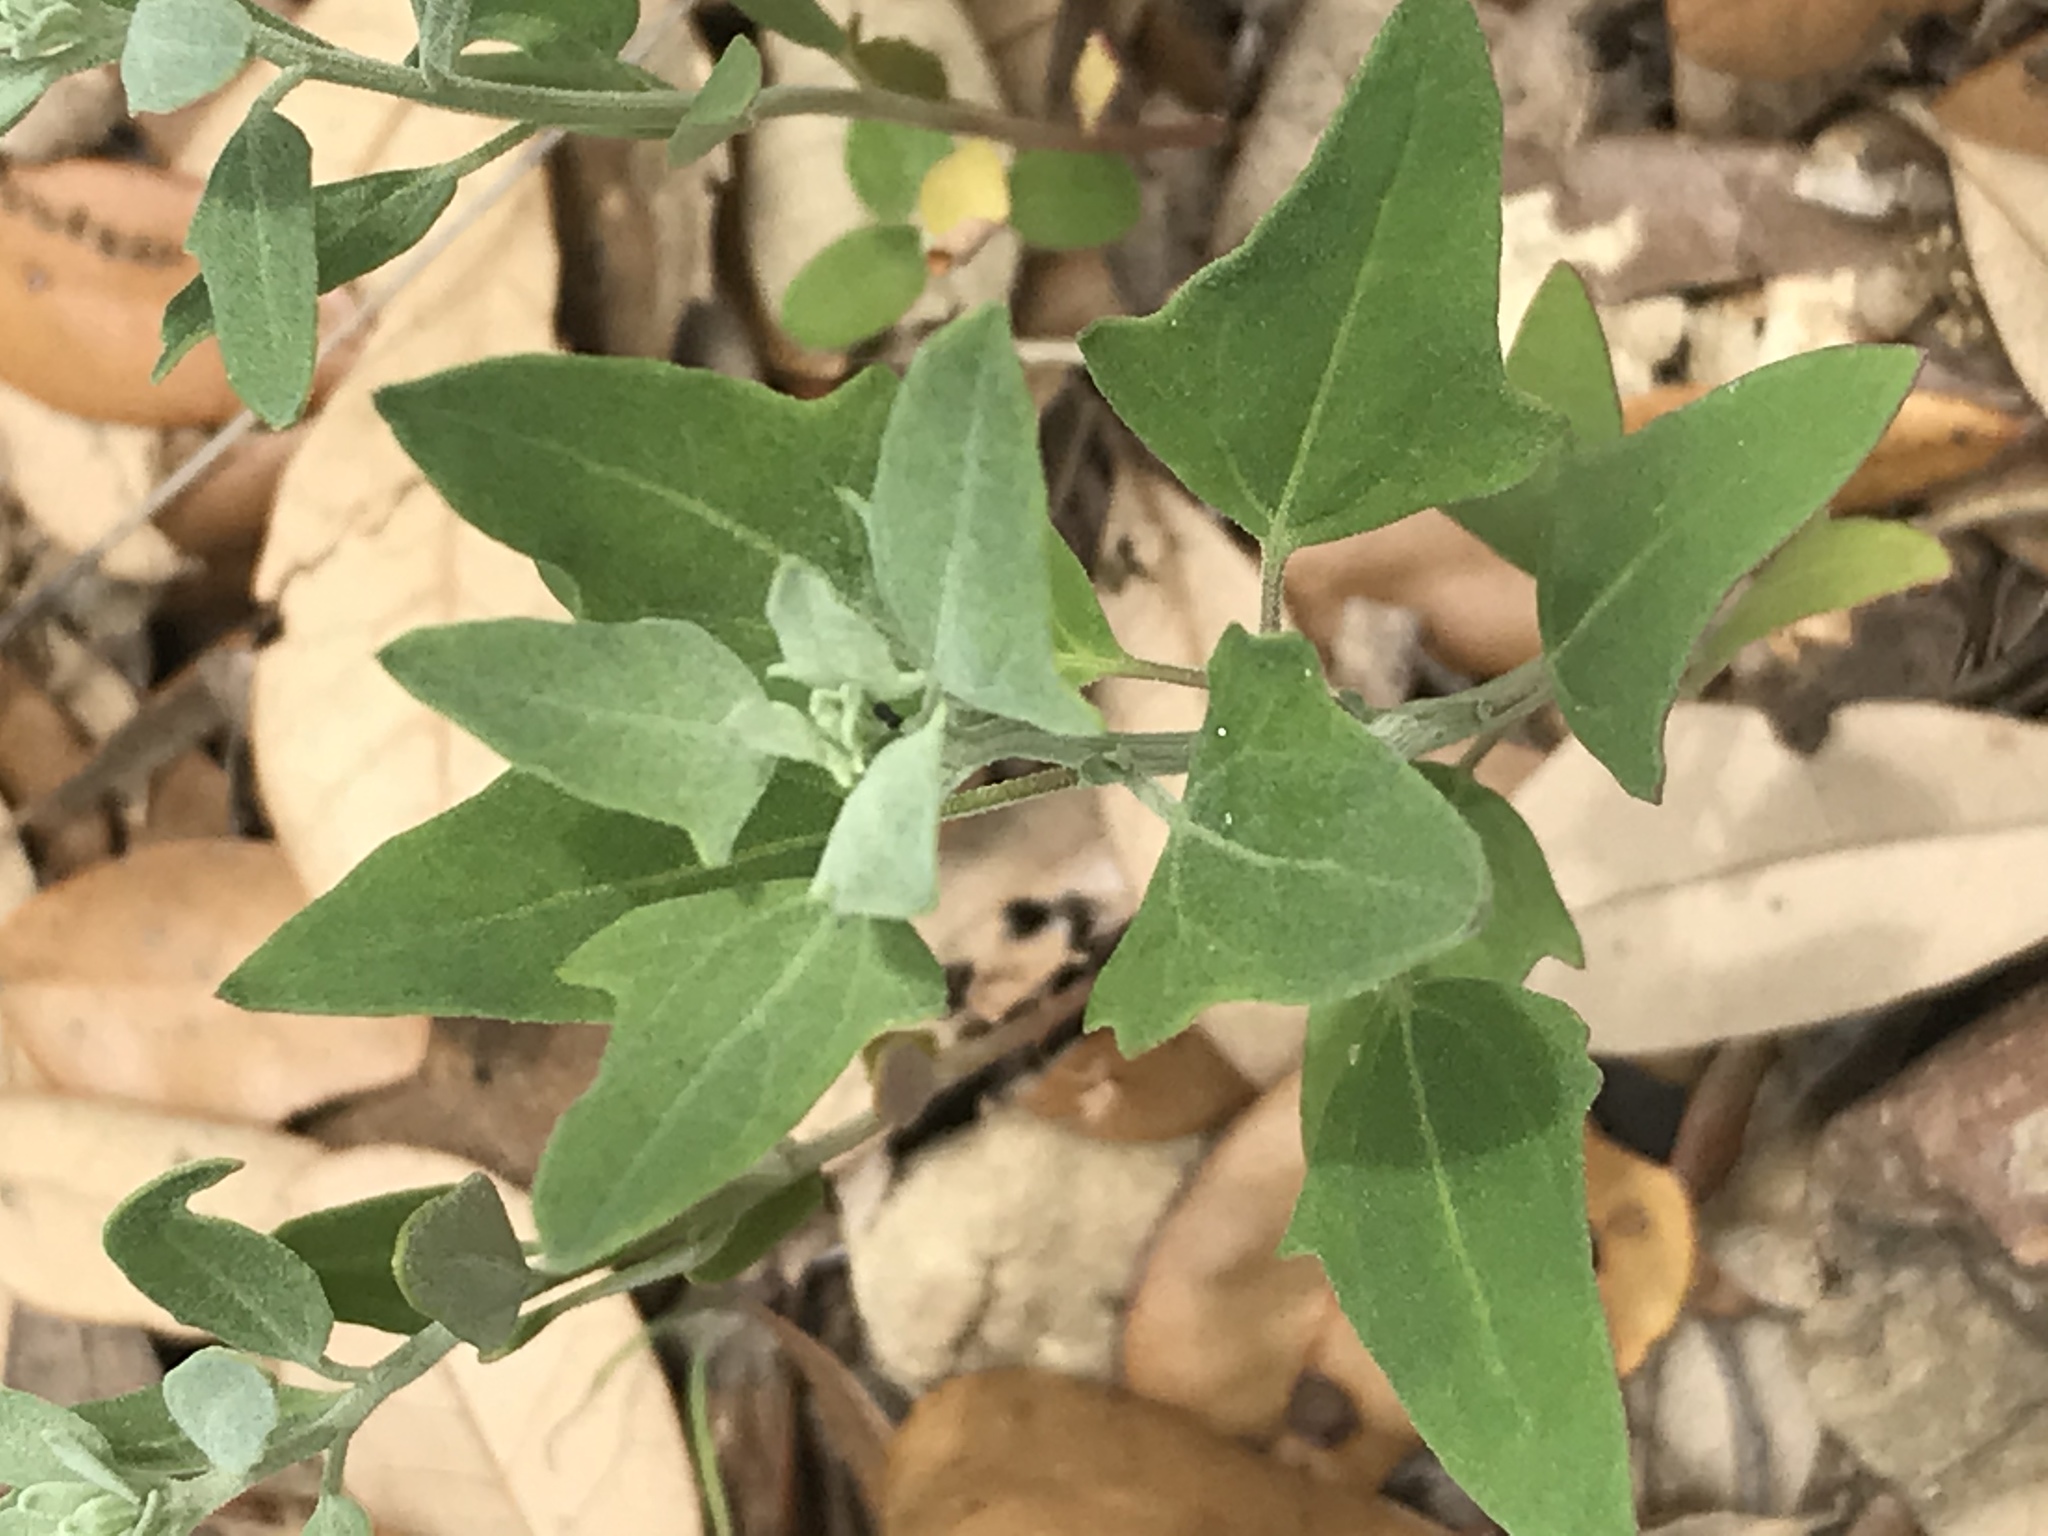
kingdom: Plantae
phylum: Tracheophyta
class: Magnoliopsida
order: Caryophyllales
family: Amaranthaceae
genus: Chenopodium
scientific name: Chenopodium album
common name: Fat-hen
